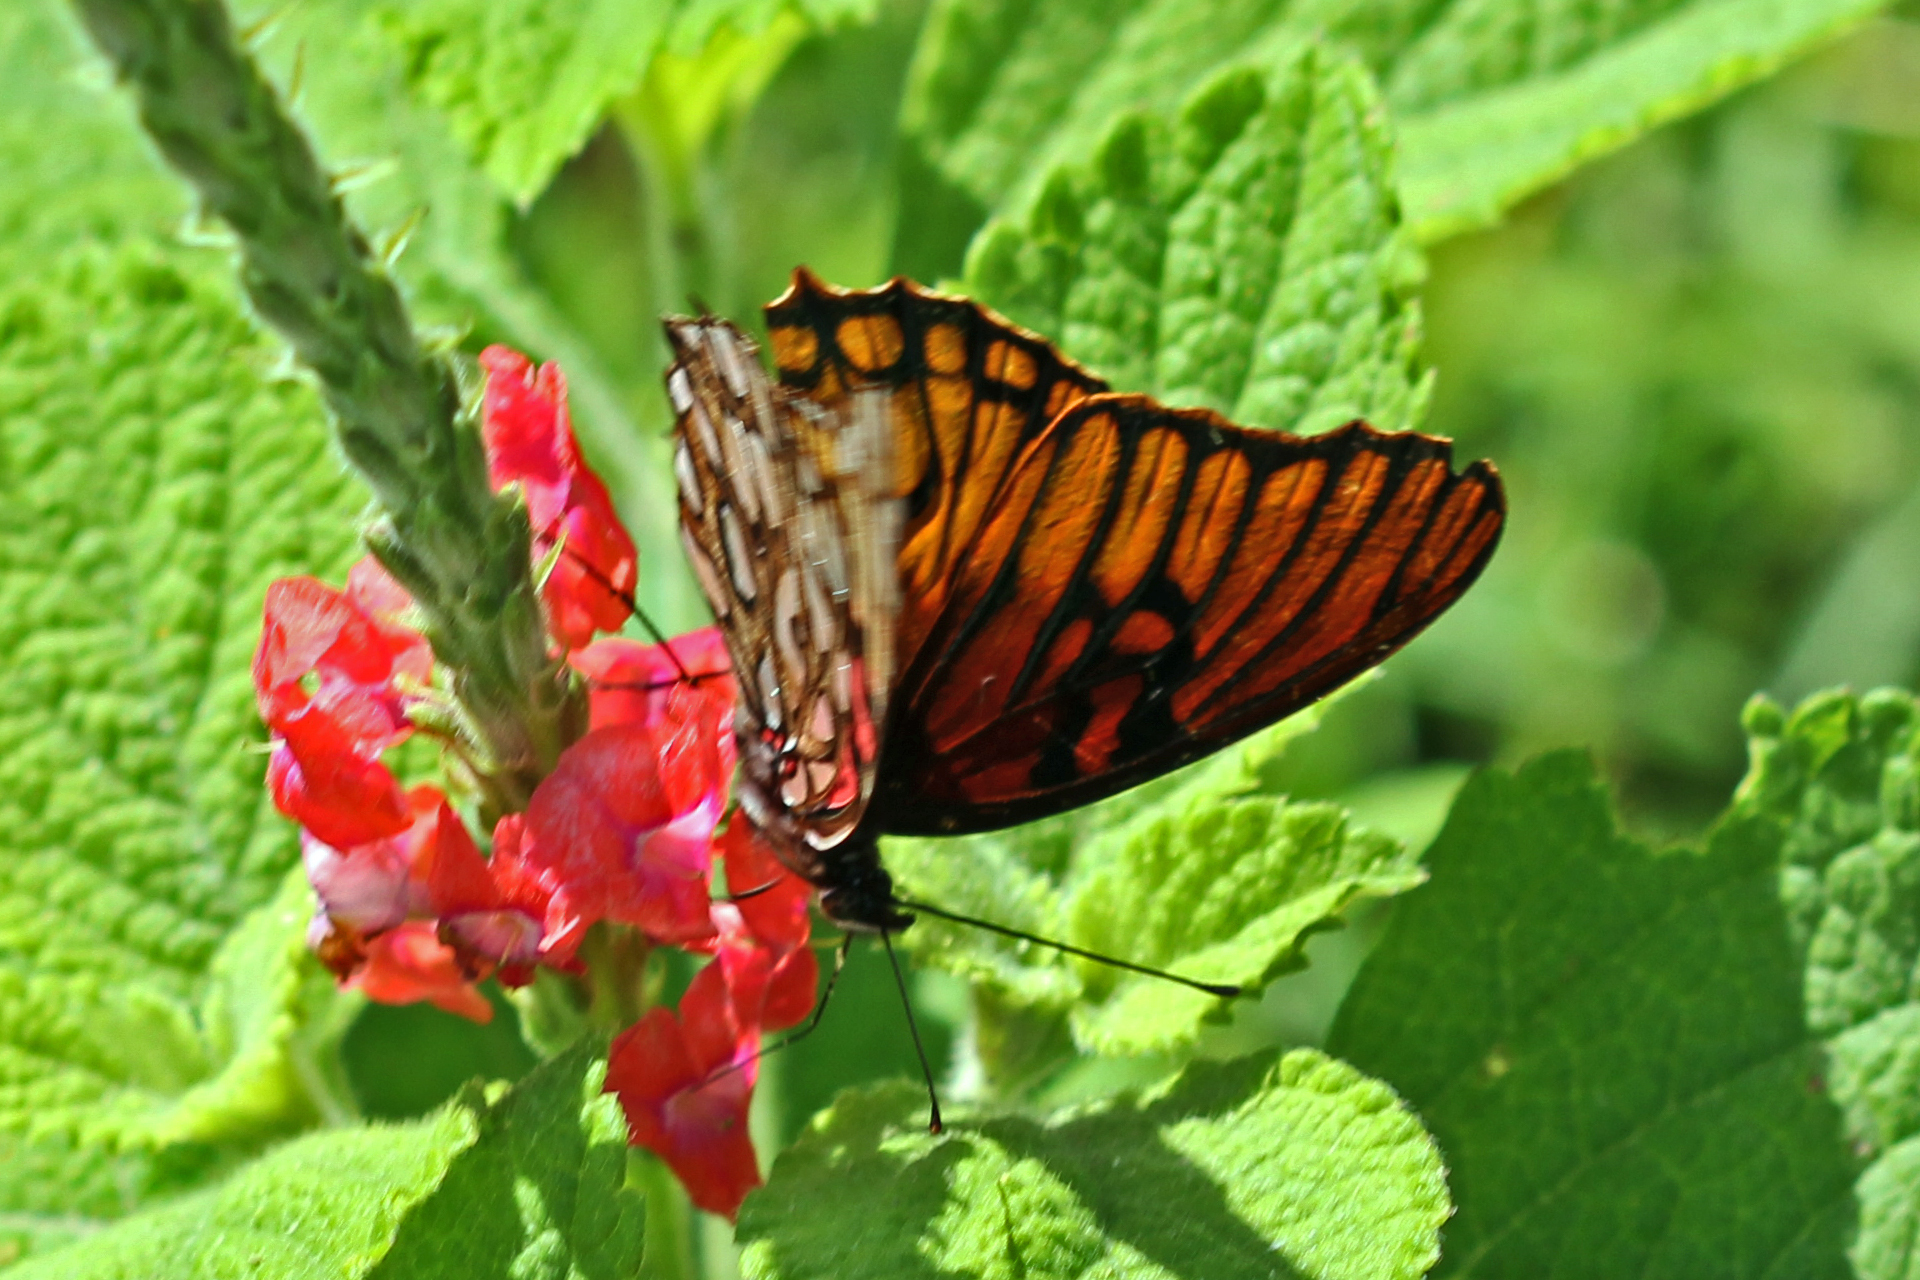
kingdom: Animalia
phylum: Arthropoda
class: Insecta
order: Lepidoptera
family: Nymphalidae
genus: Dione
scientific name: Dione moneta
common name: Mexican silverspot
